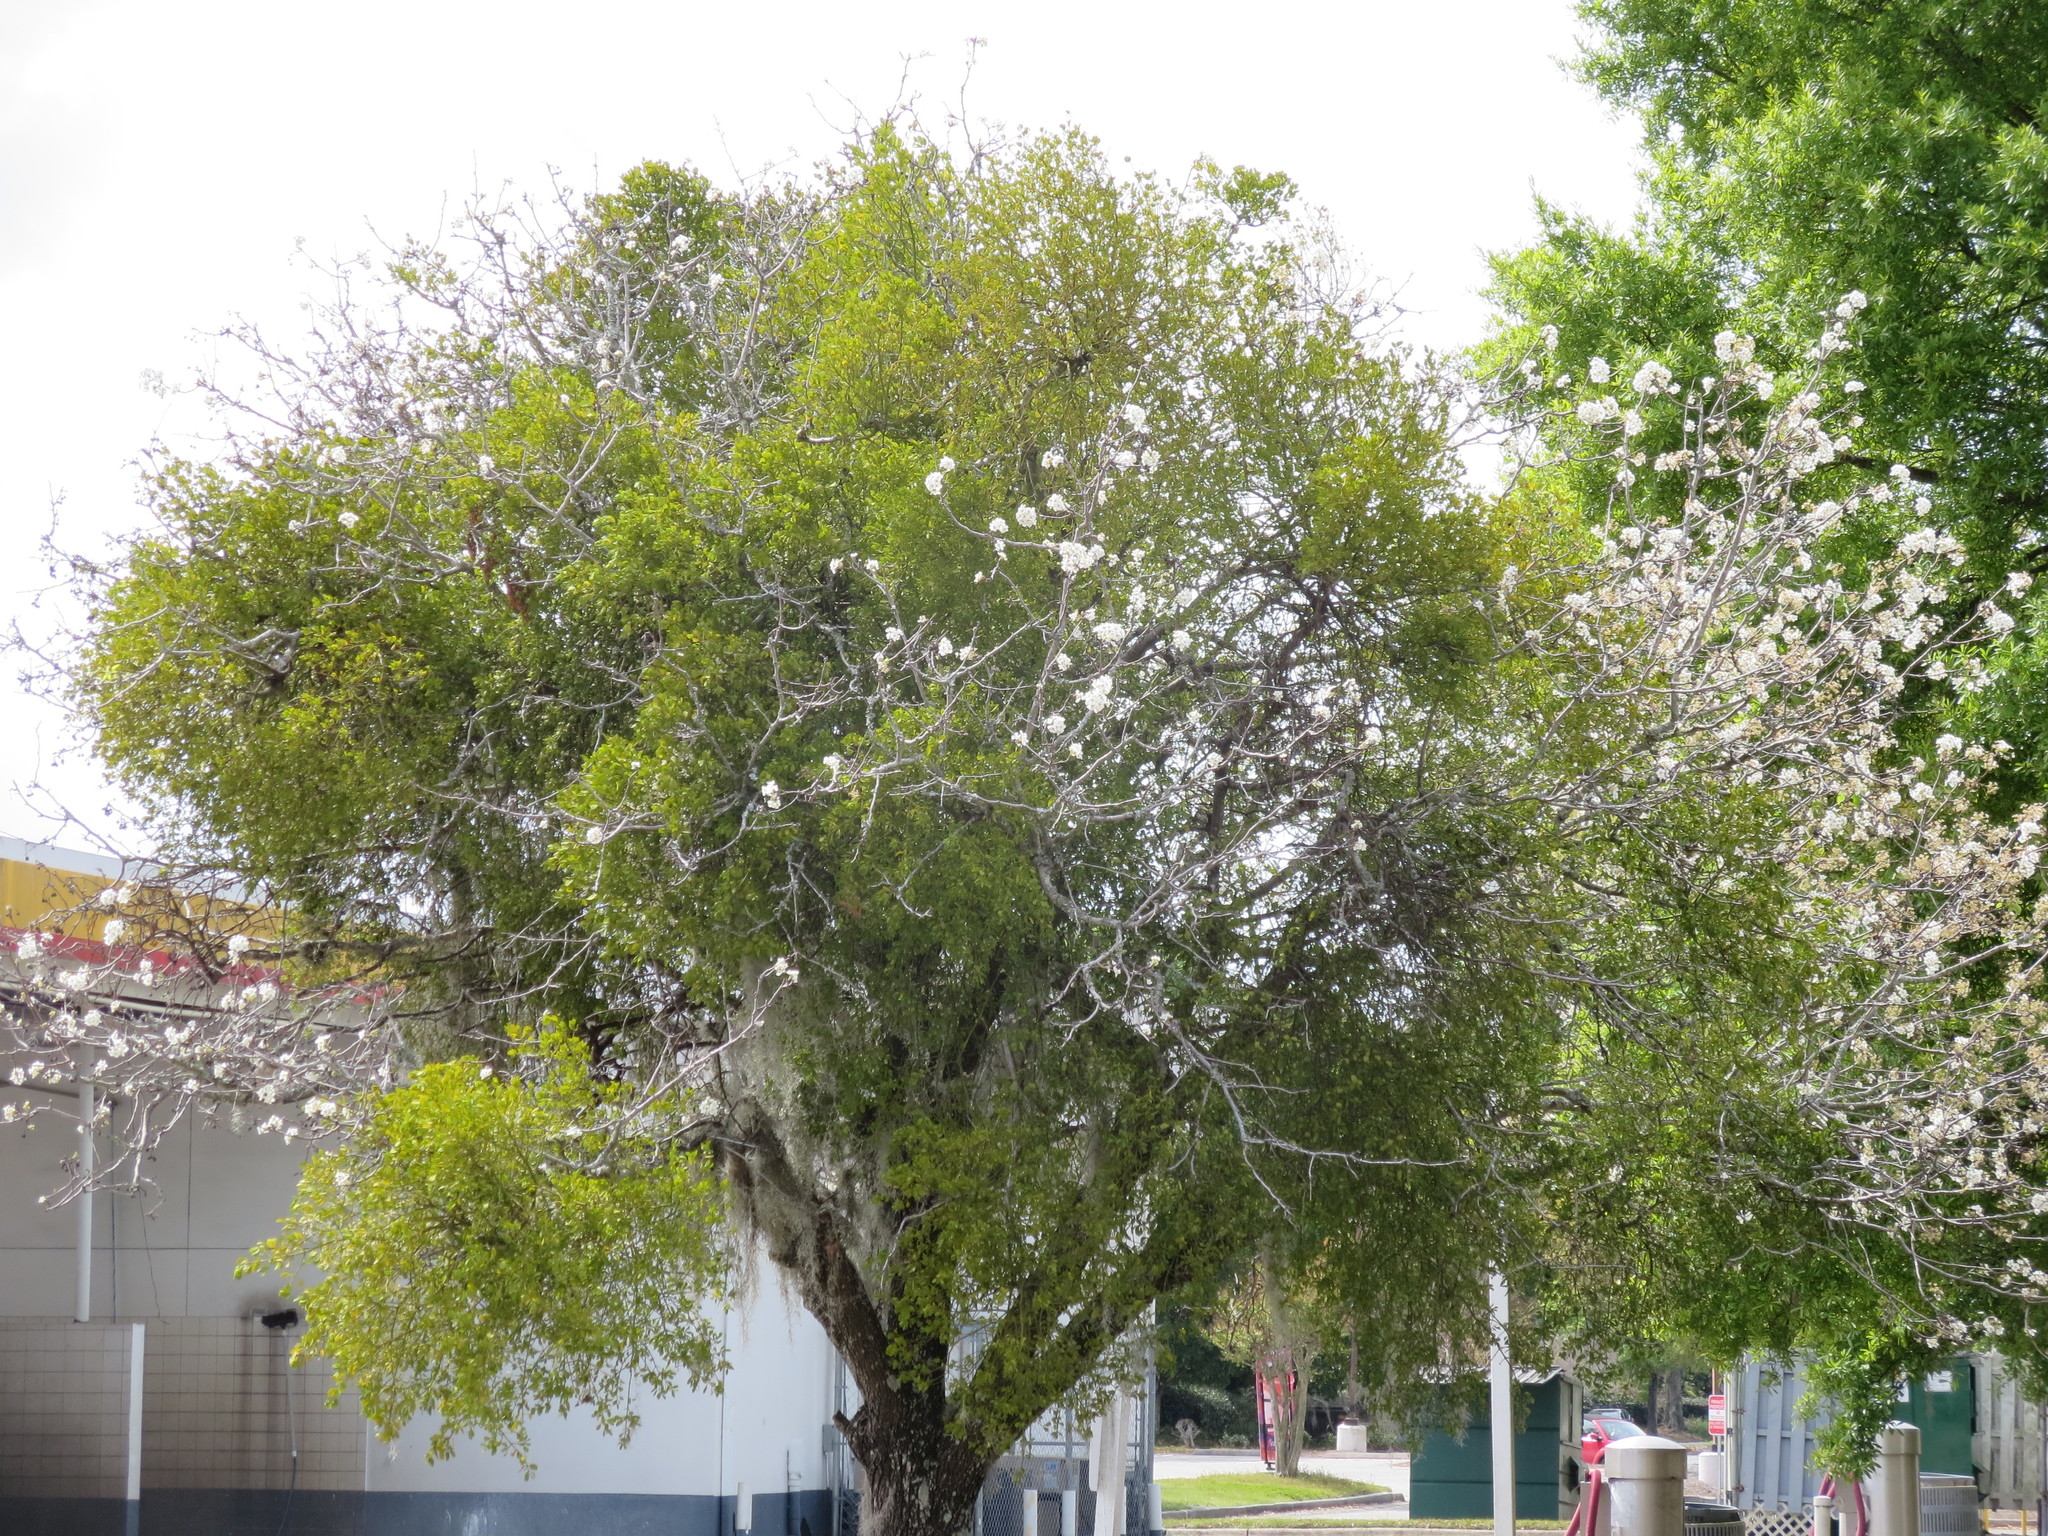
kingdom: Plantae
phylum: Tracheophyta
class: Magnoliopsida
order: Santalales
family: Viscaceae
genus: Phoradendron
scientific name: Phoradendron leucarpum
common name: Pacific mistletoe
